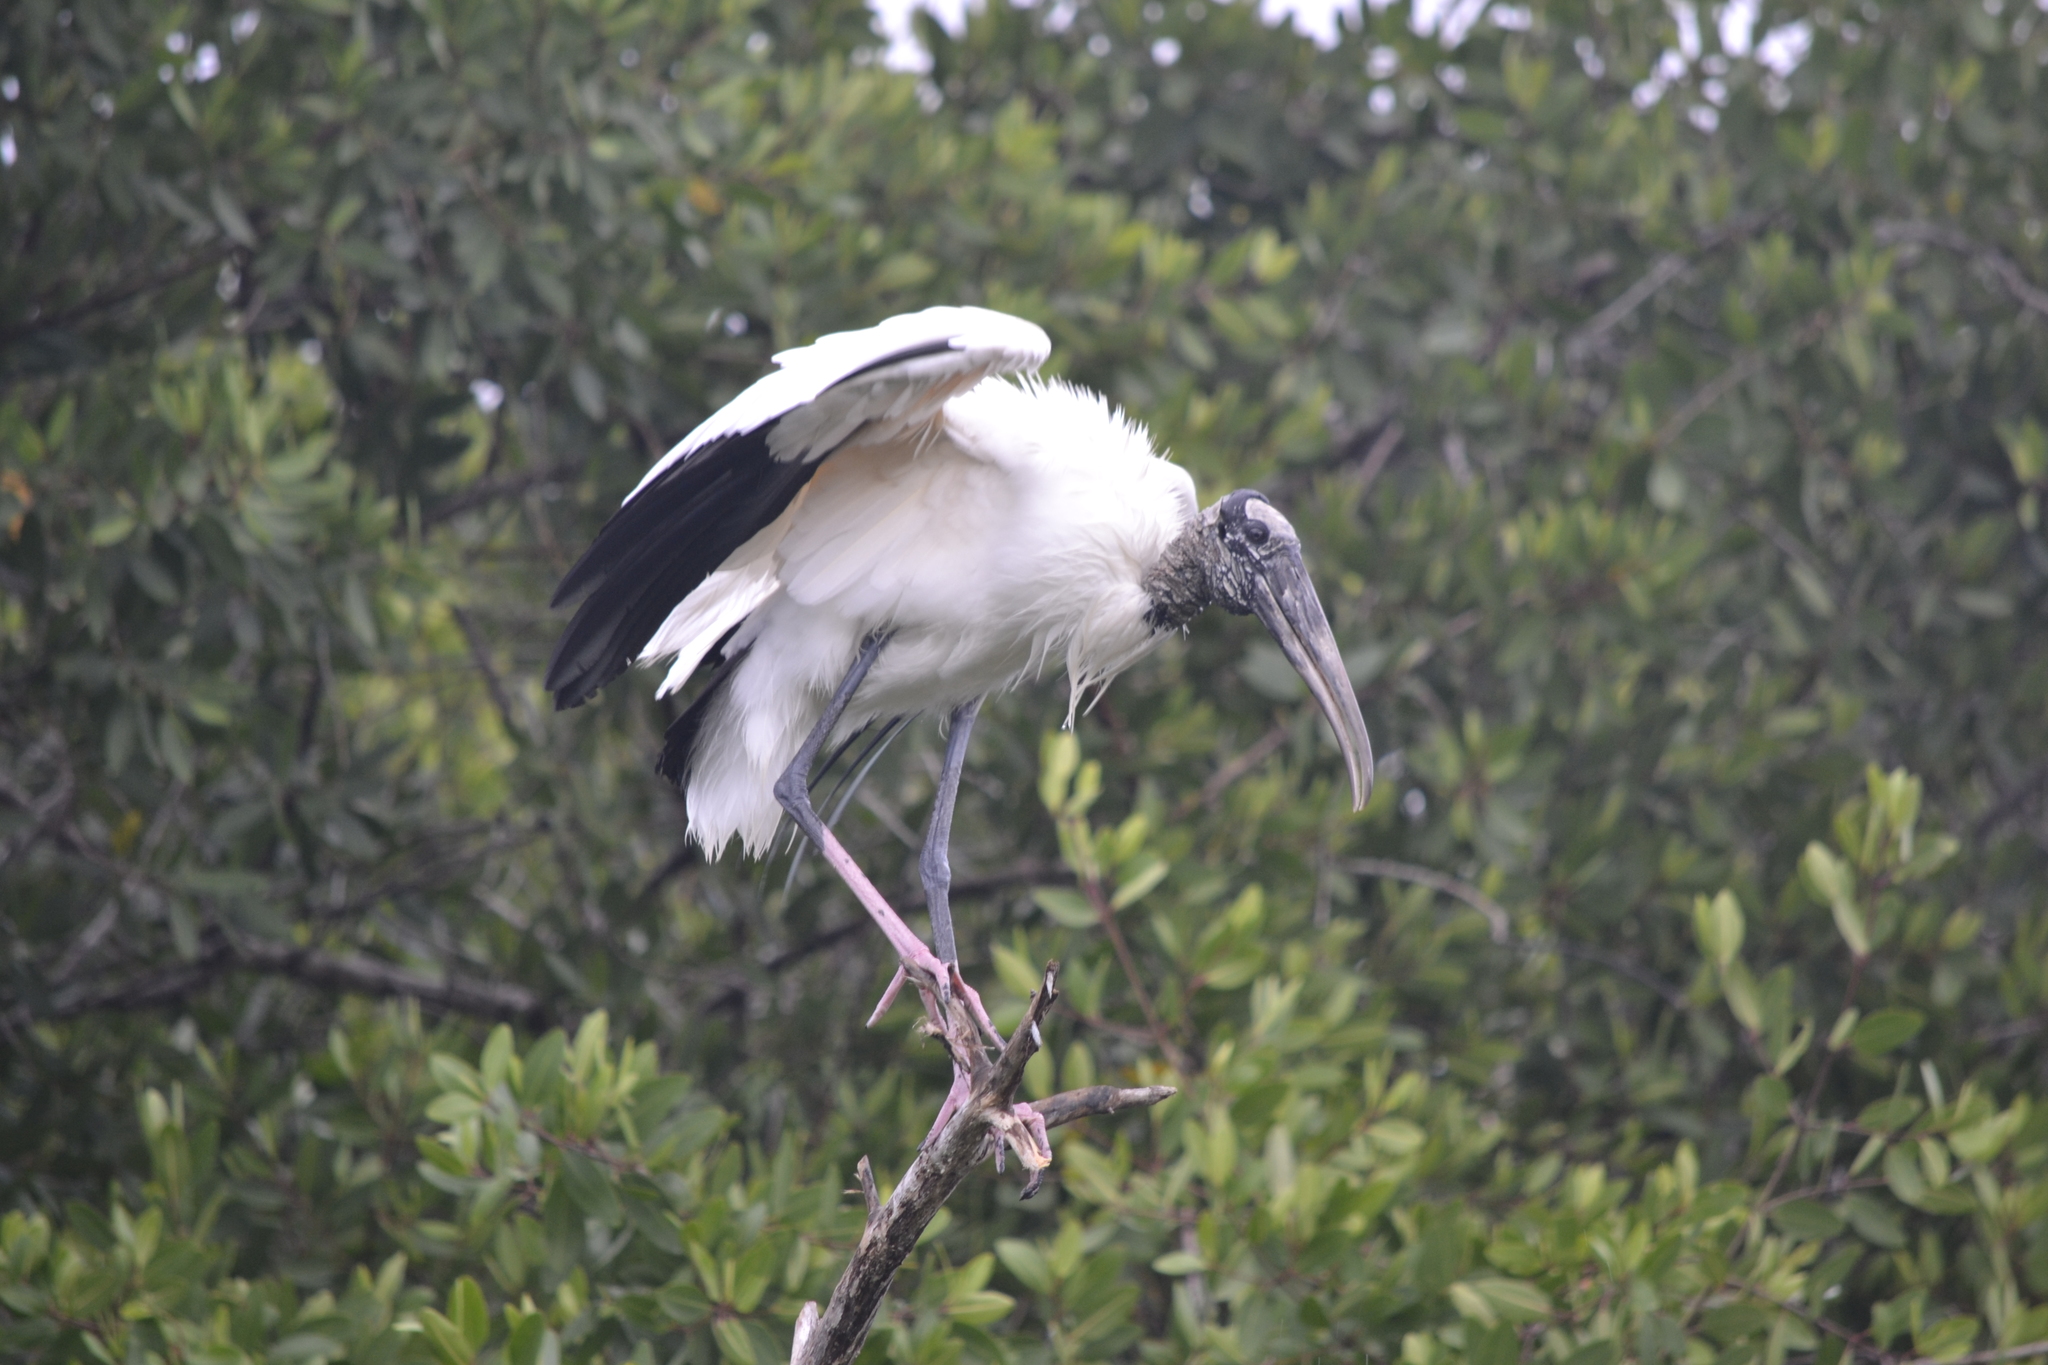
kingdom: Animalia
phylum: Chordata
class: Aves
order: Ciconiiformes
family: Ciconiidae
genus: Mycteria
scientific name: Mycteria americana
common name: Wood stork
